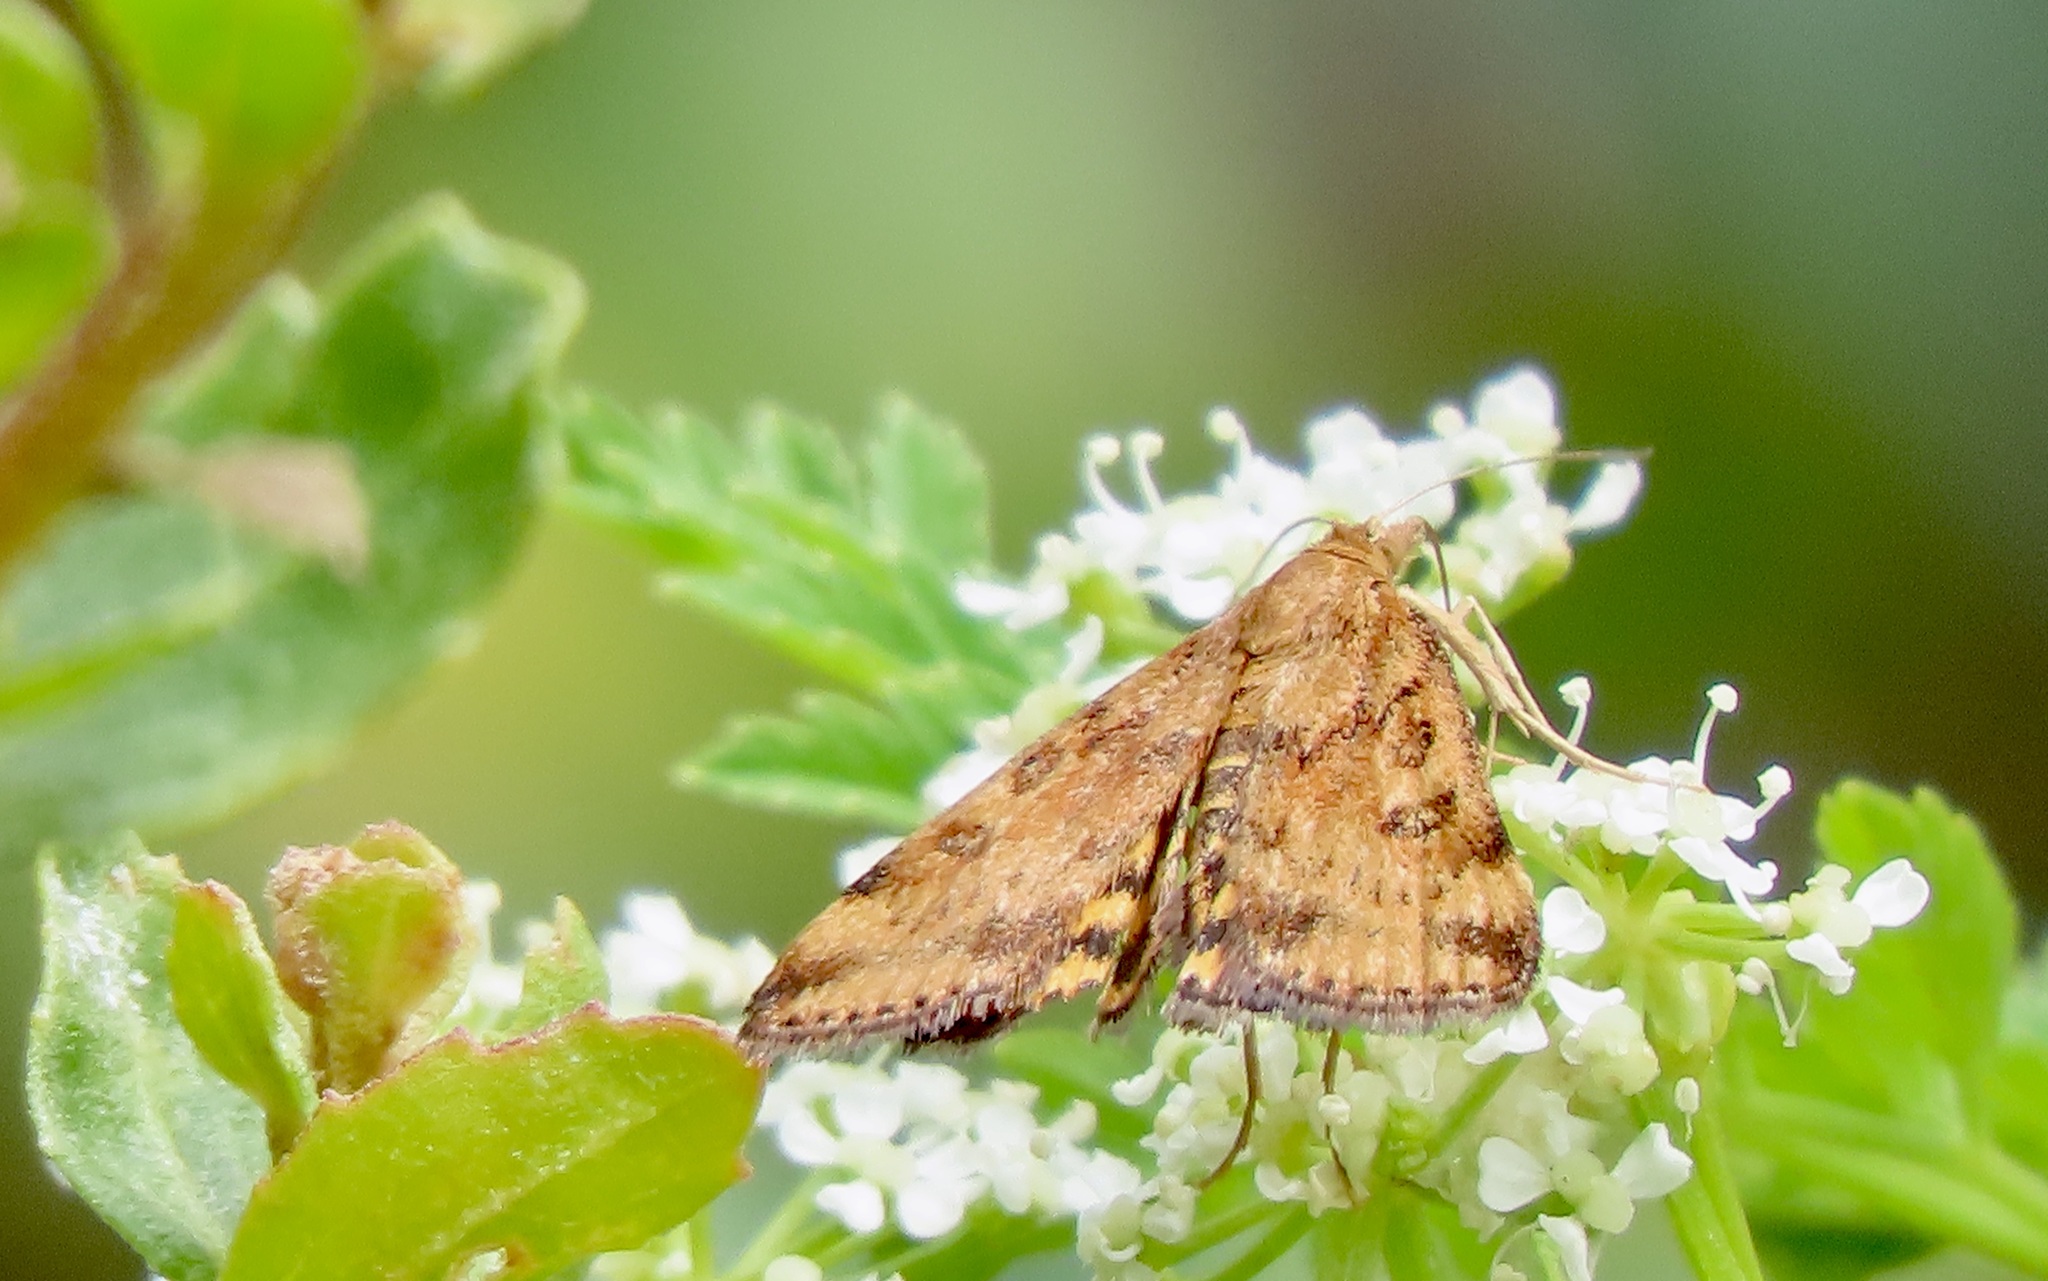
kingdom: Animalia
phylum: Arthropoda
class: Insecta
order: Lepidoptera
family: Crambidae
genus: Pyrausta
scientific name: Pyrausta subsequalis
